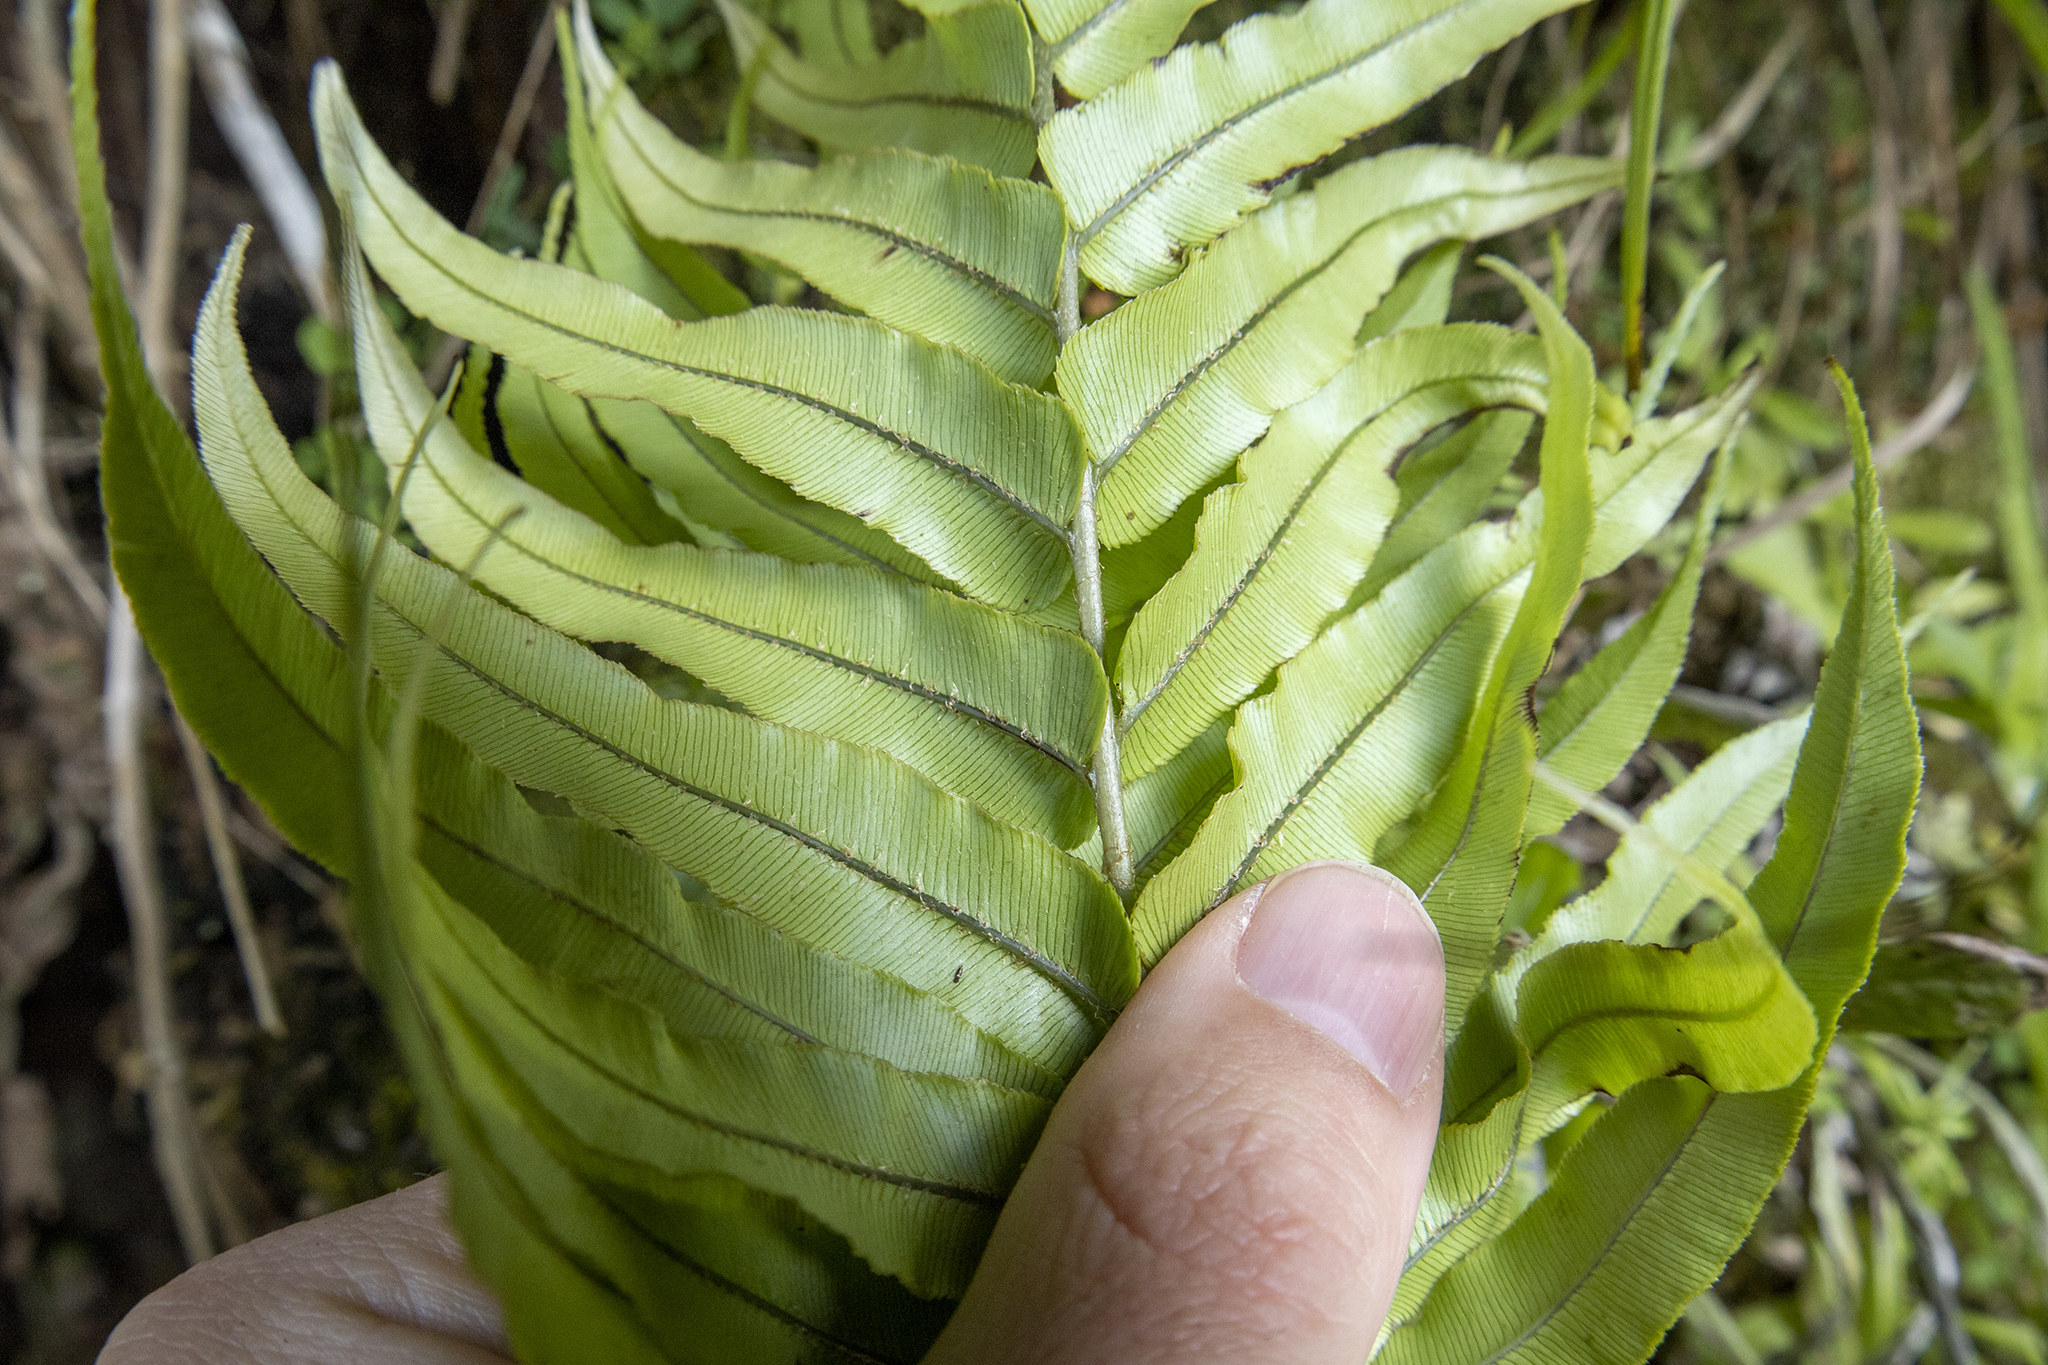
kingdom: Plantae
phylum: Tracheophyta
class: Polypodiopsida
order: Polypodiales
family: Blechnaceae
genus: Parablechnum
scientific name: Parablechnum novae-zelandiae
